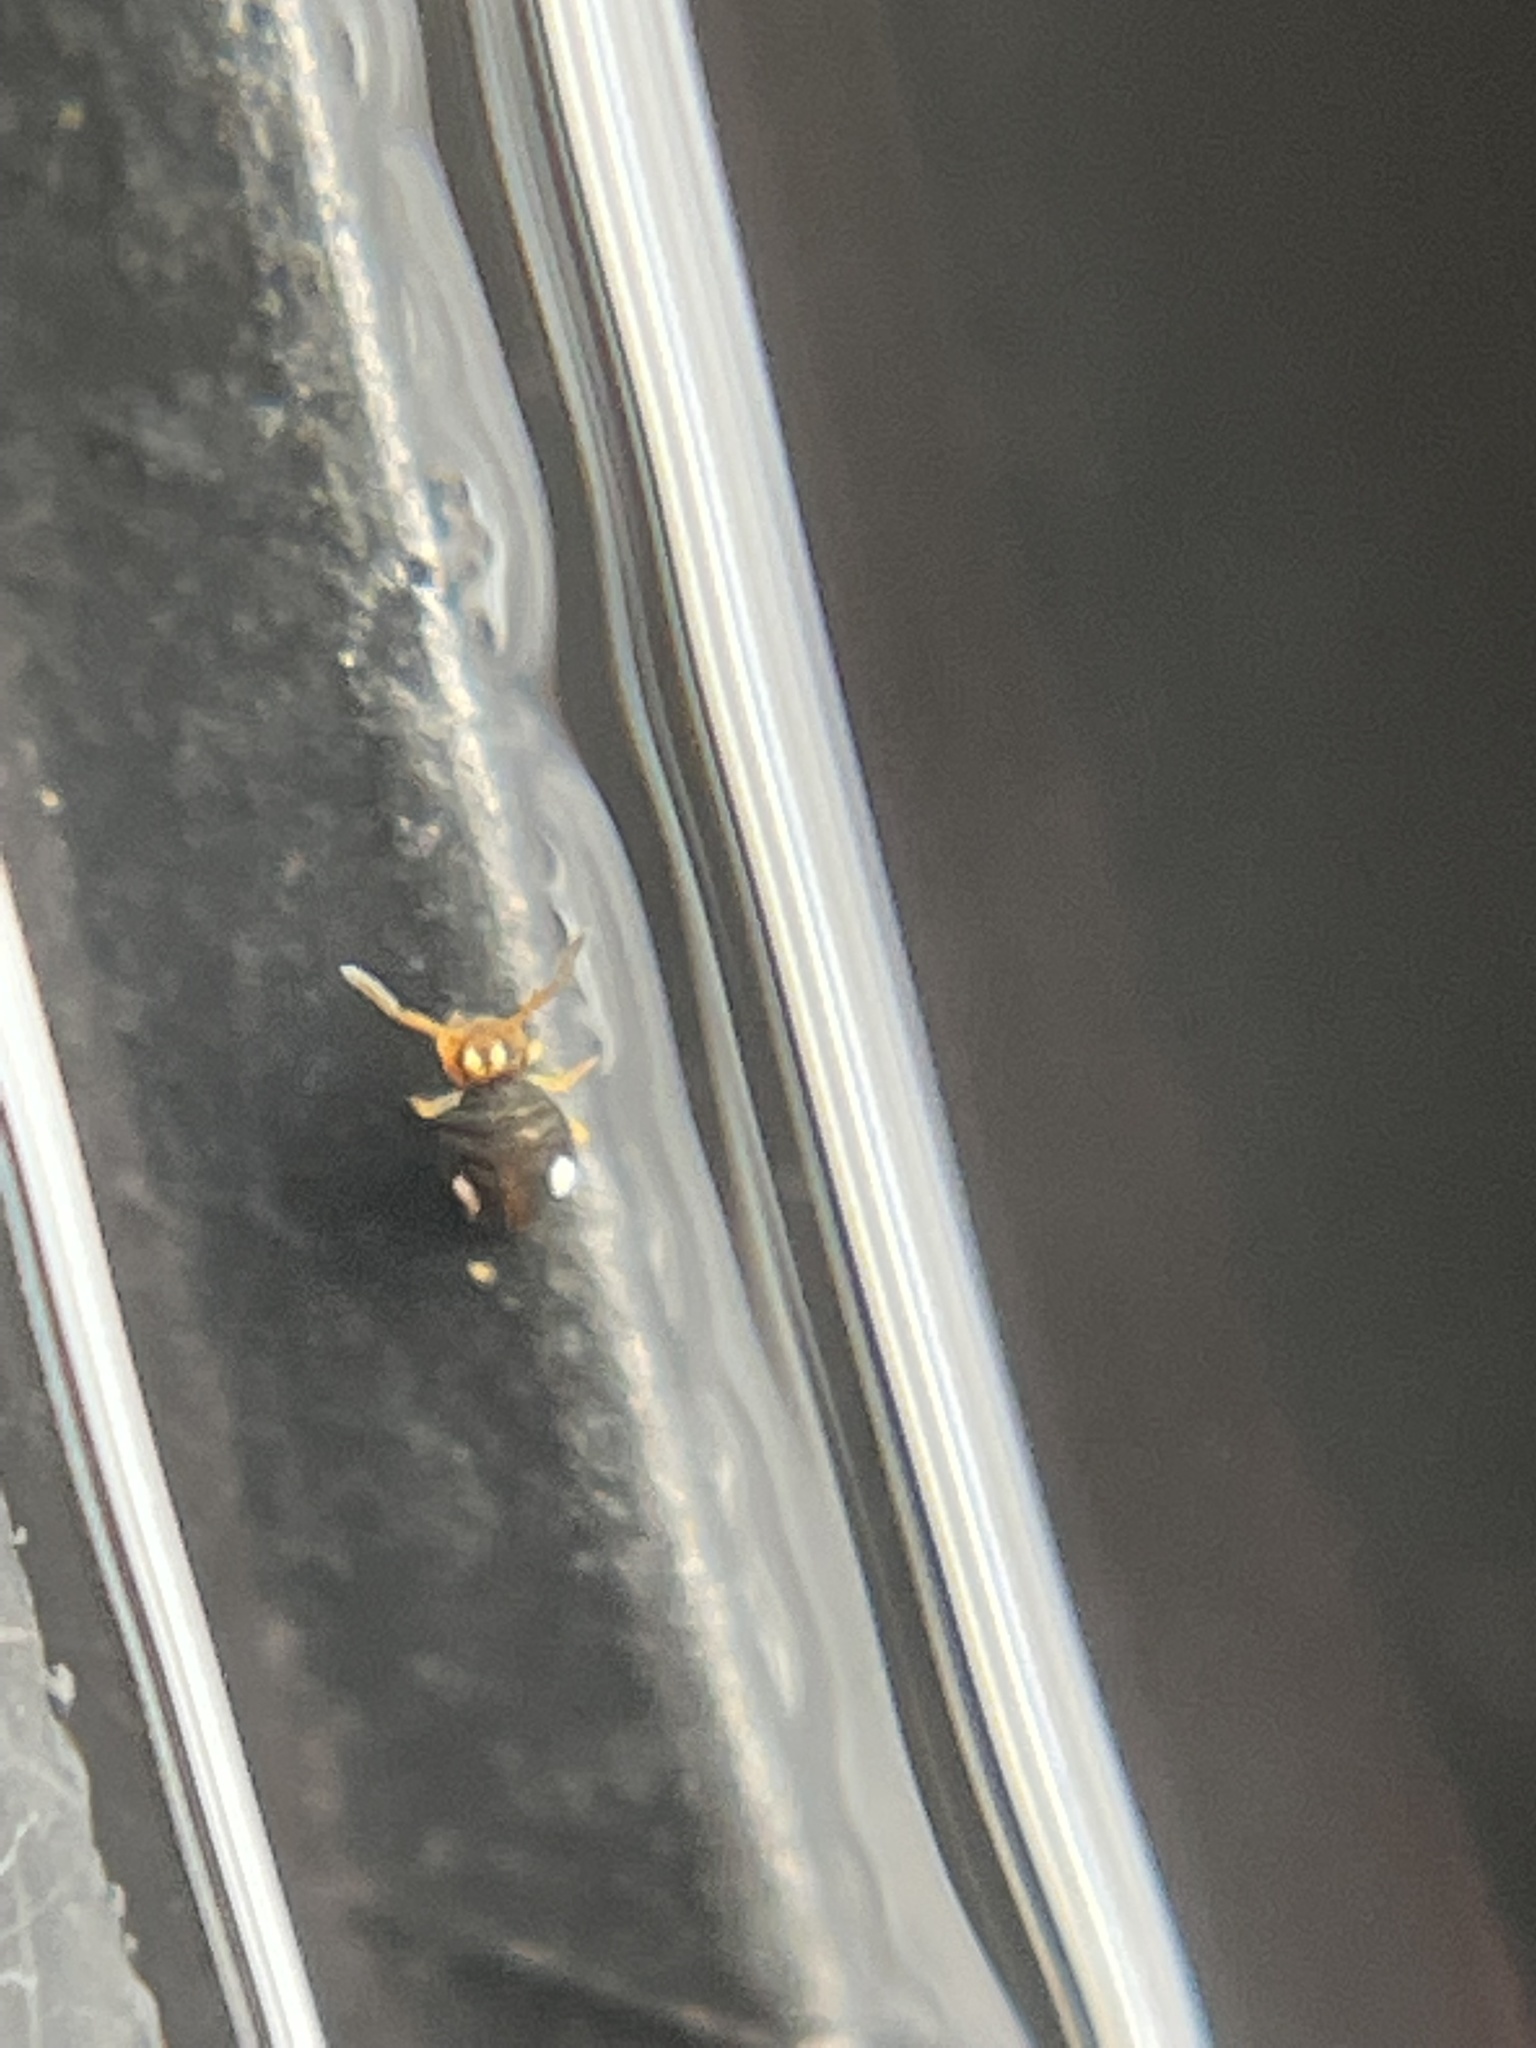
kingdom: Animalia
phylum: Arthropoda
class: Collembola
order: Symphypleona
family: Katiannidae
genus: Sminthurinus
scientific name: Sminthurinus quadrimaculatus
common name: Globular springtail
